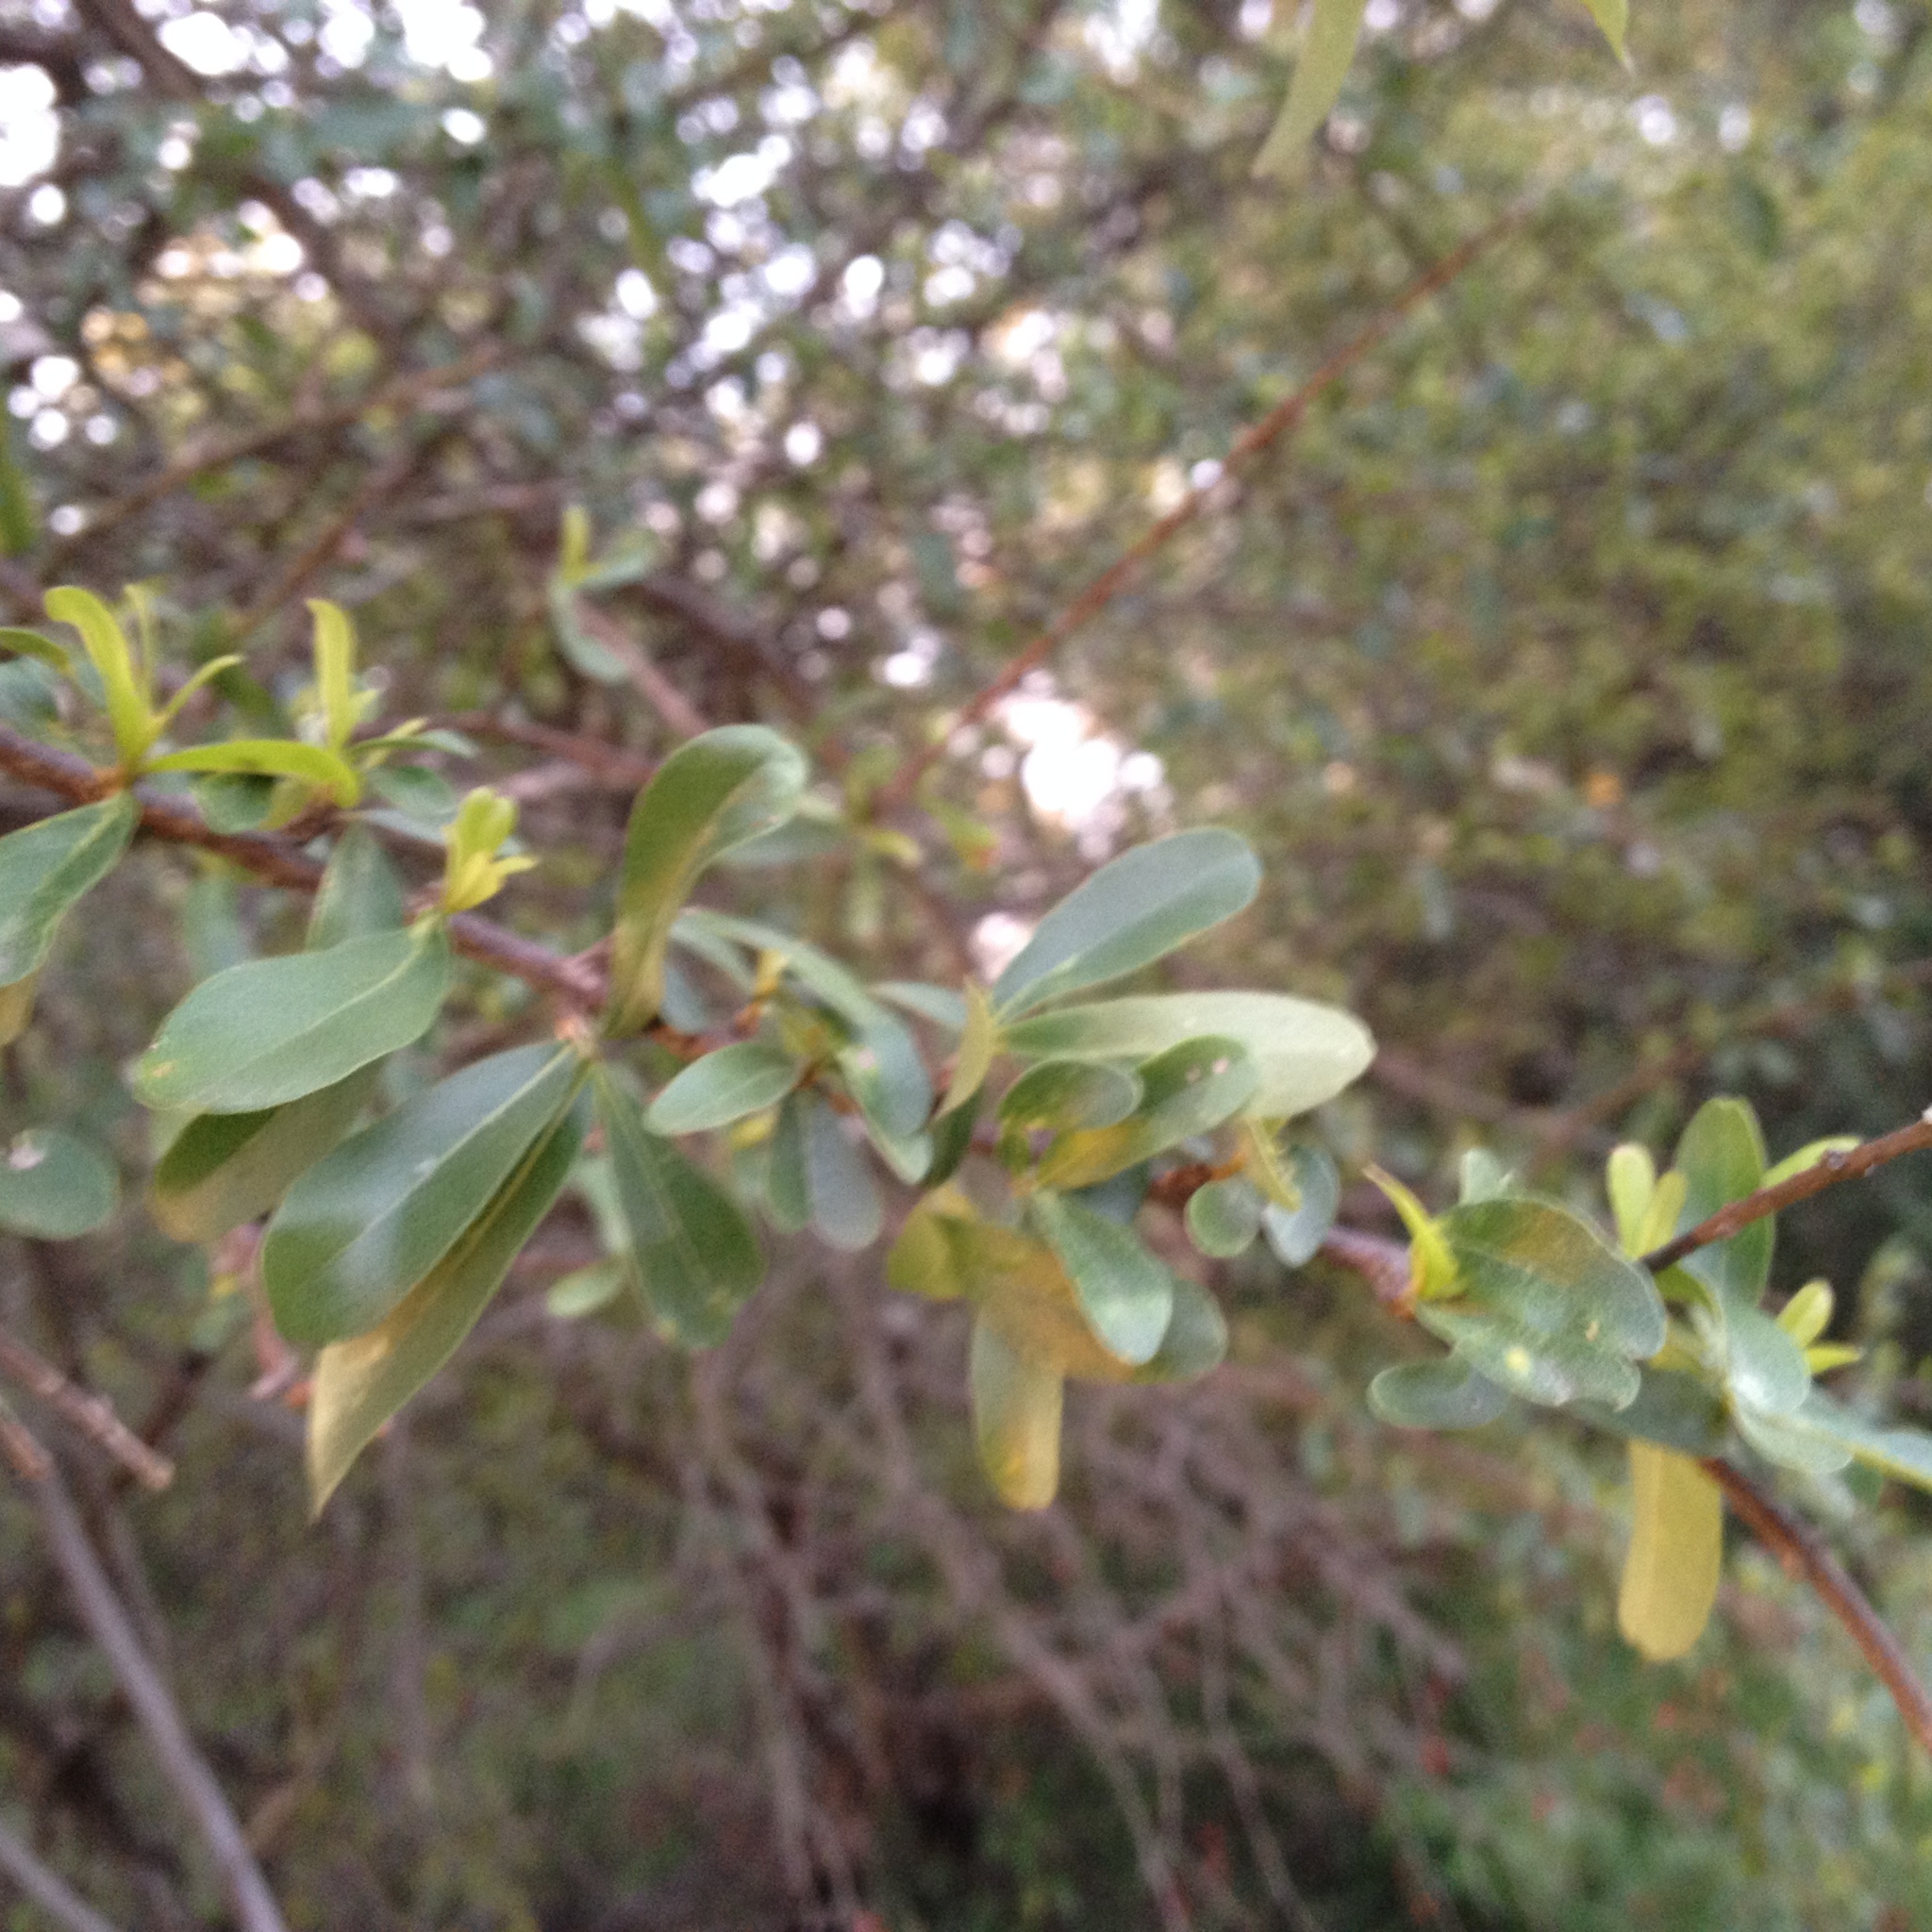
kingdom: Plantae
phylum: Tracheophyta
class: Magnoliopsida
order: Lamiales
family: Bignoniaceae
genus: Tabebuia
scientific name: Tabebuia nodosa
